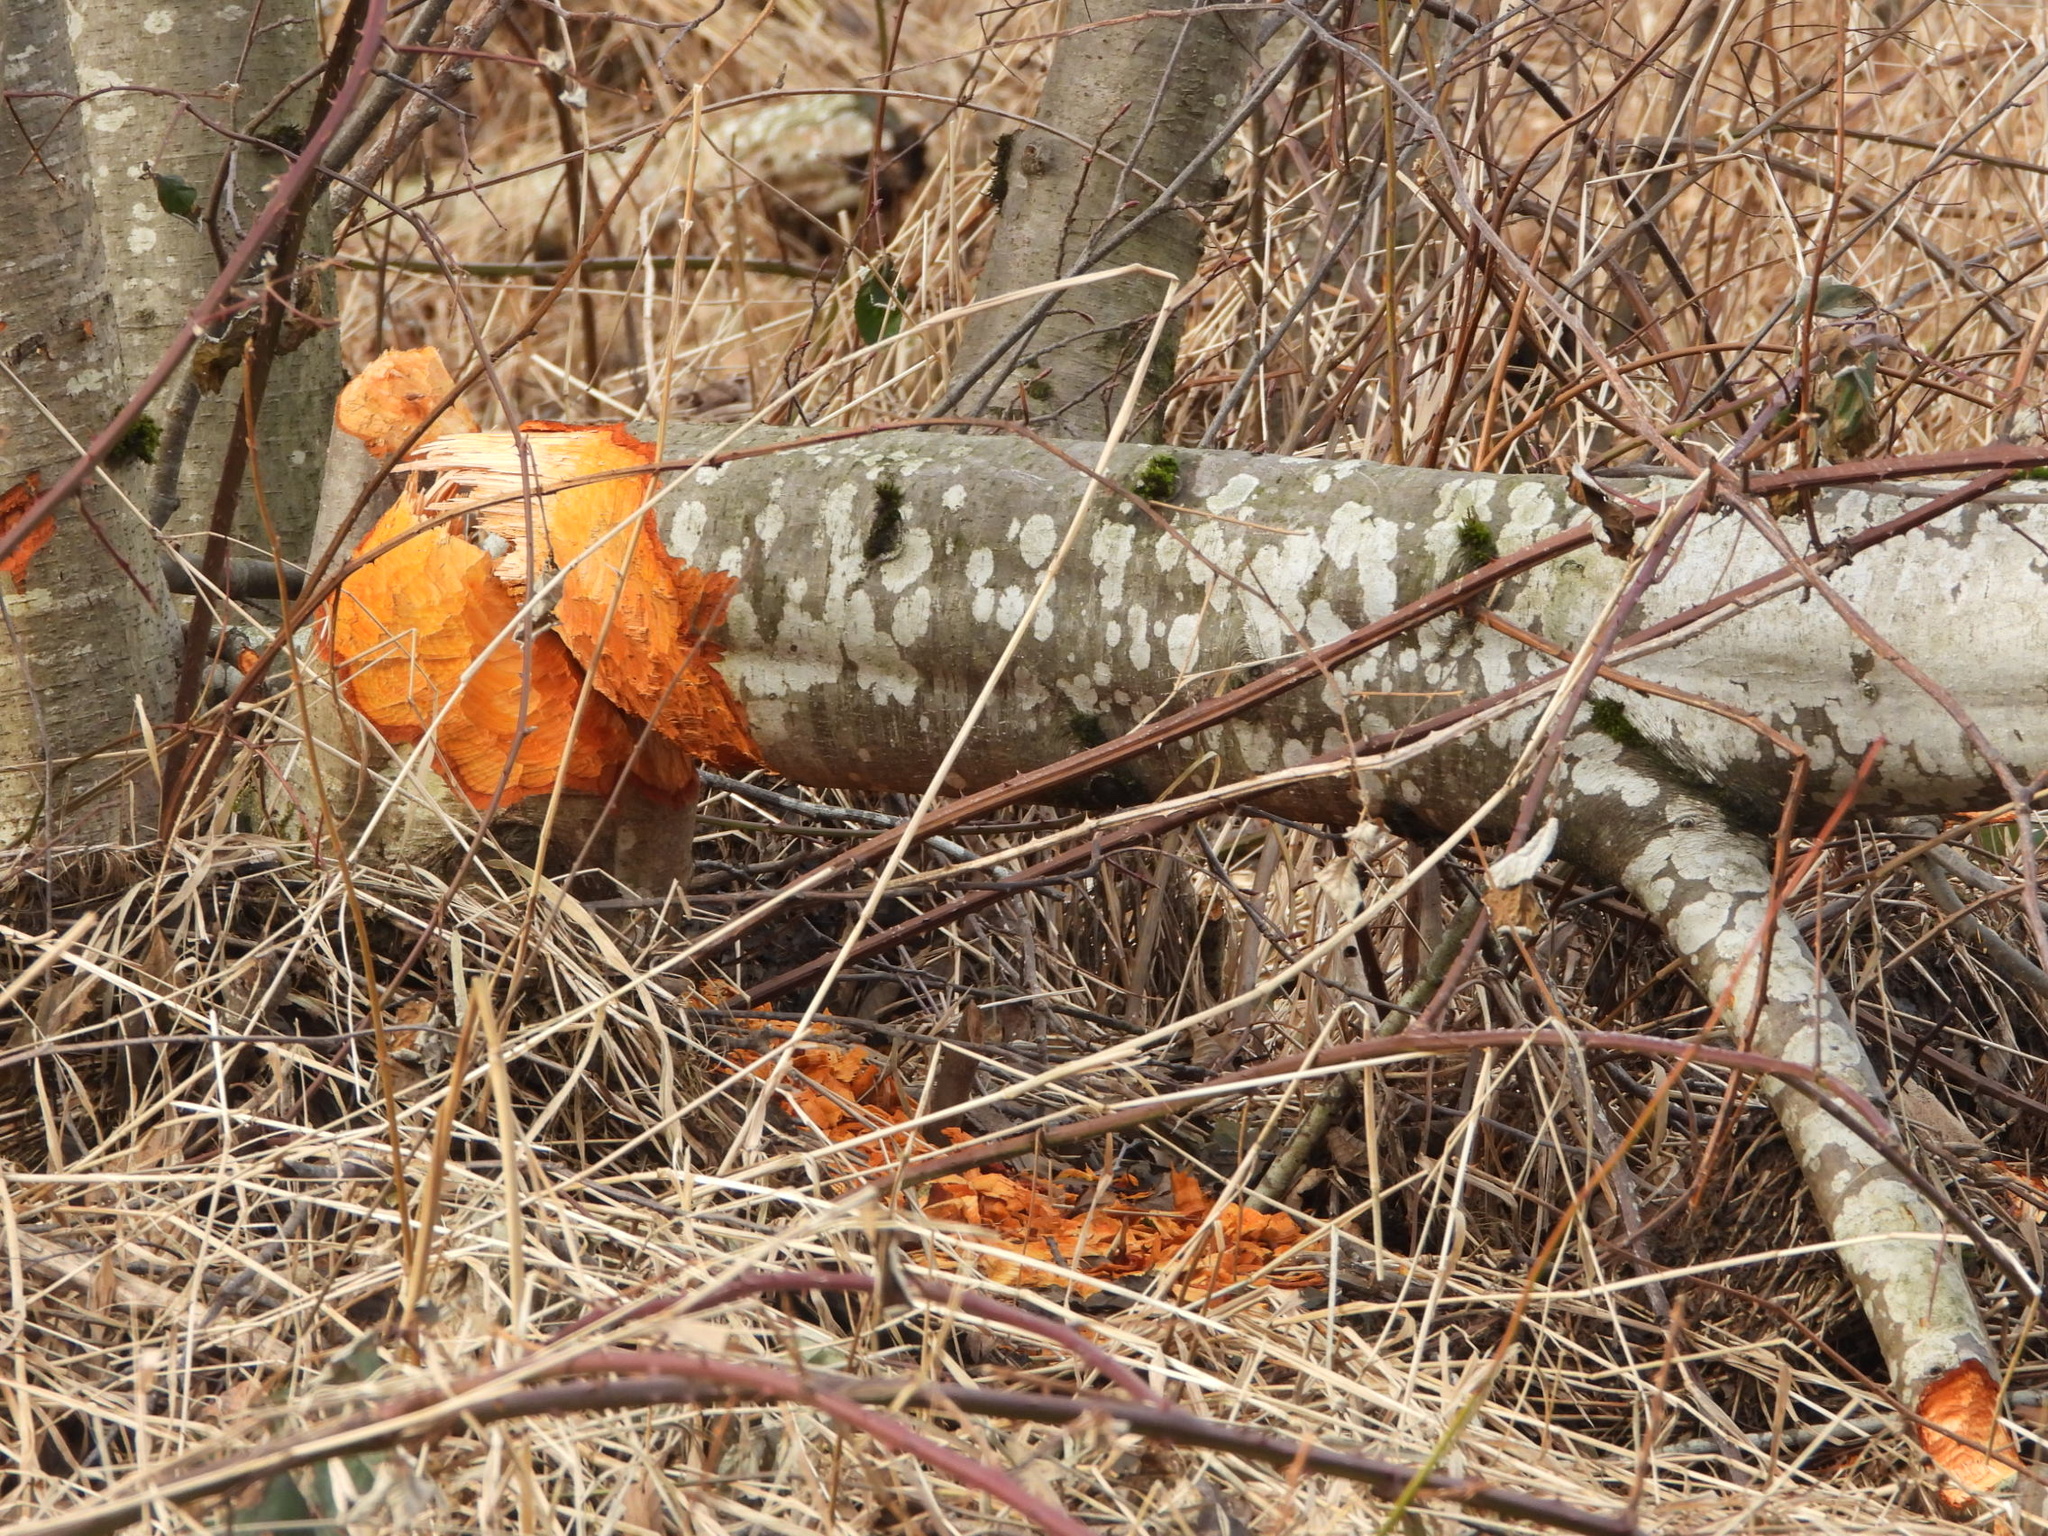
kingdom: Animalia
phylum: Chordata
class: Mammalia
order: Rodentia
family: Castoridae
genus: Castor
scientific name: Castor canadensis
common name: American beaver
